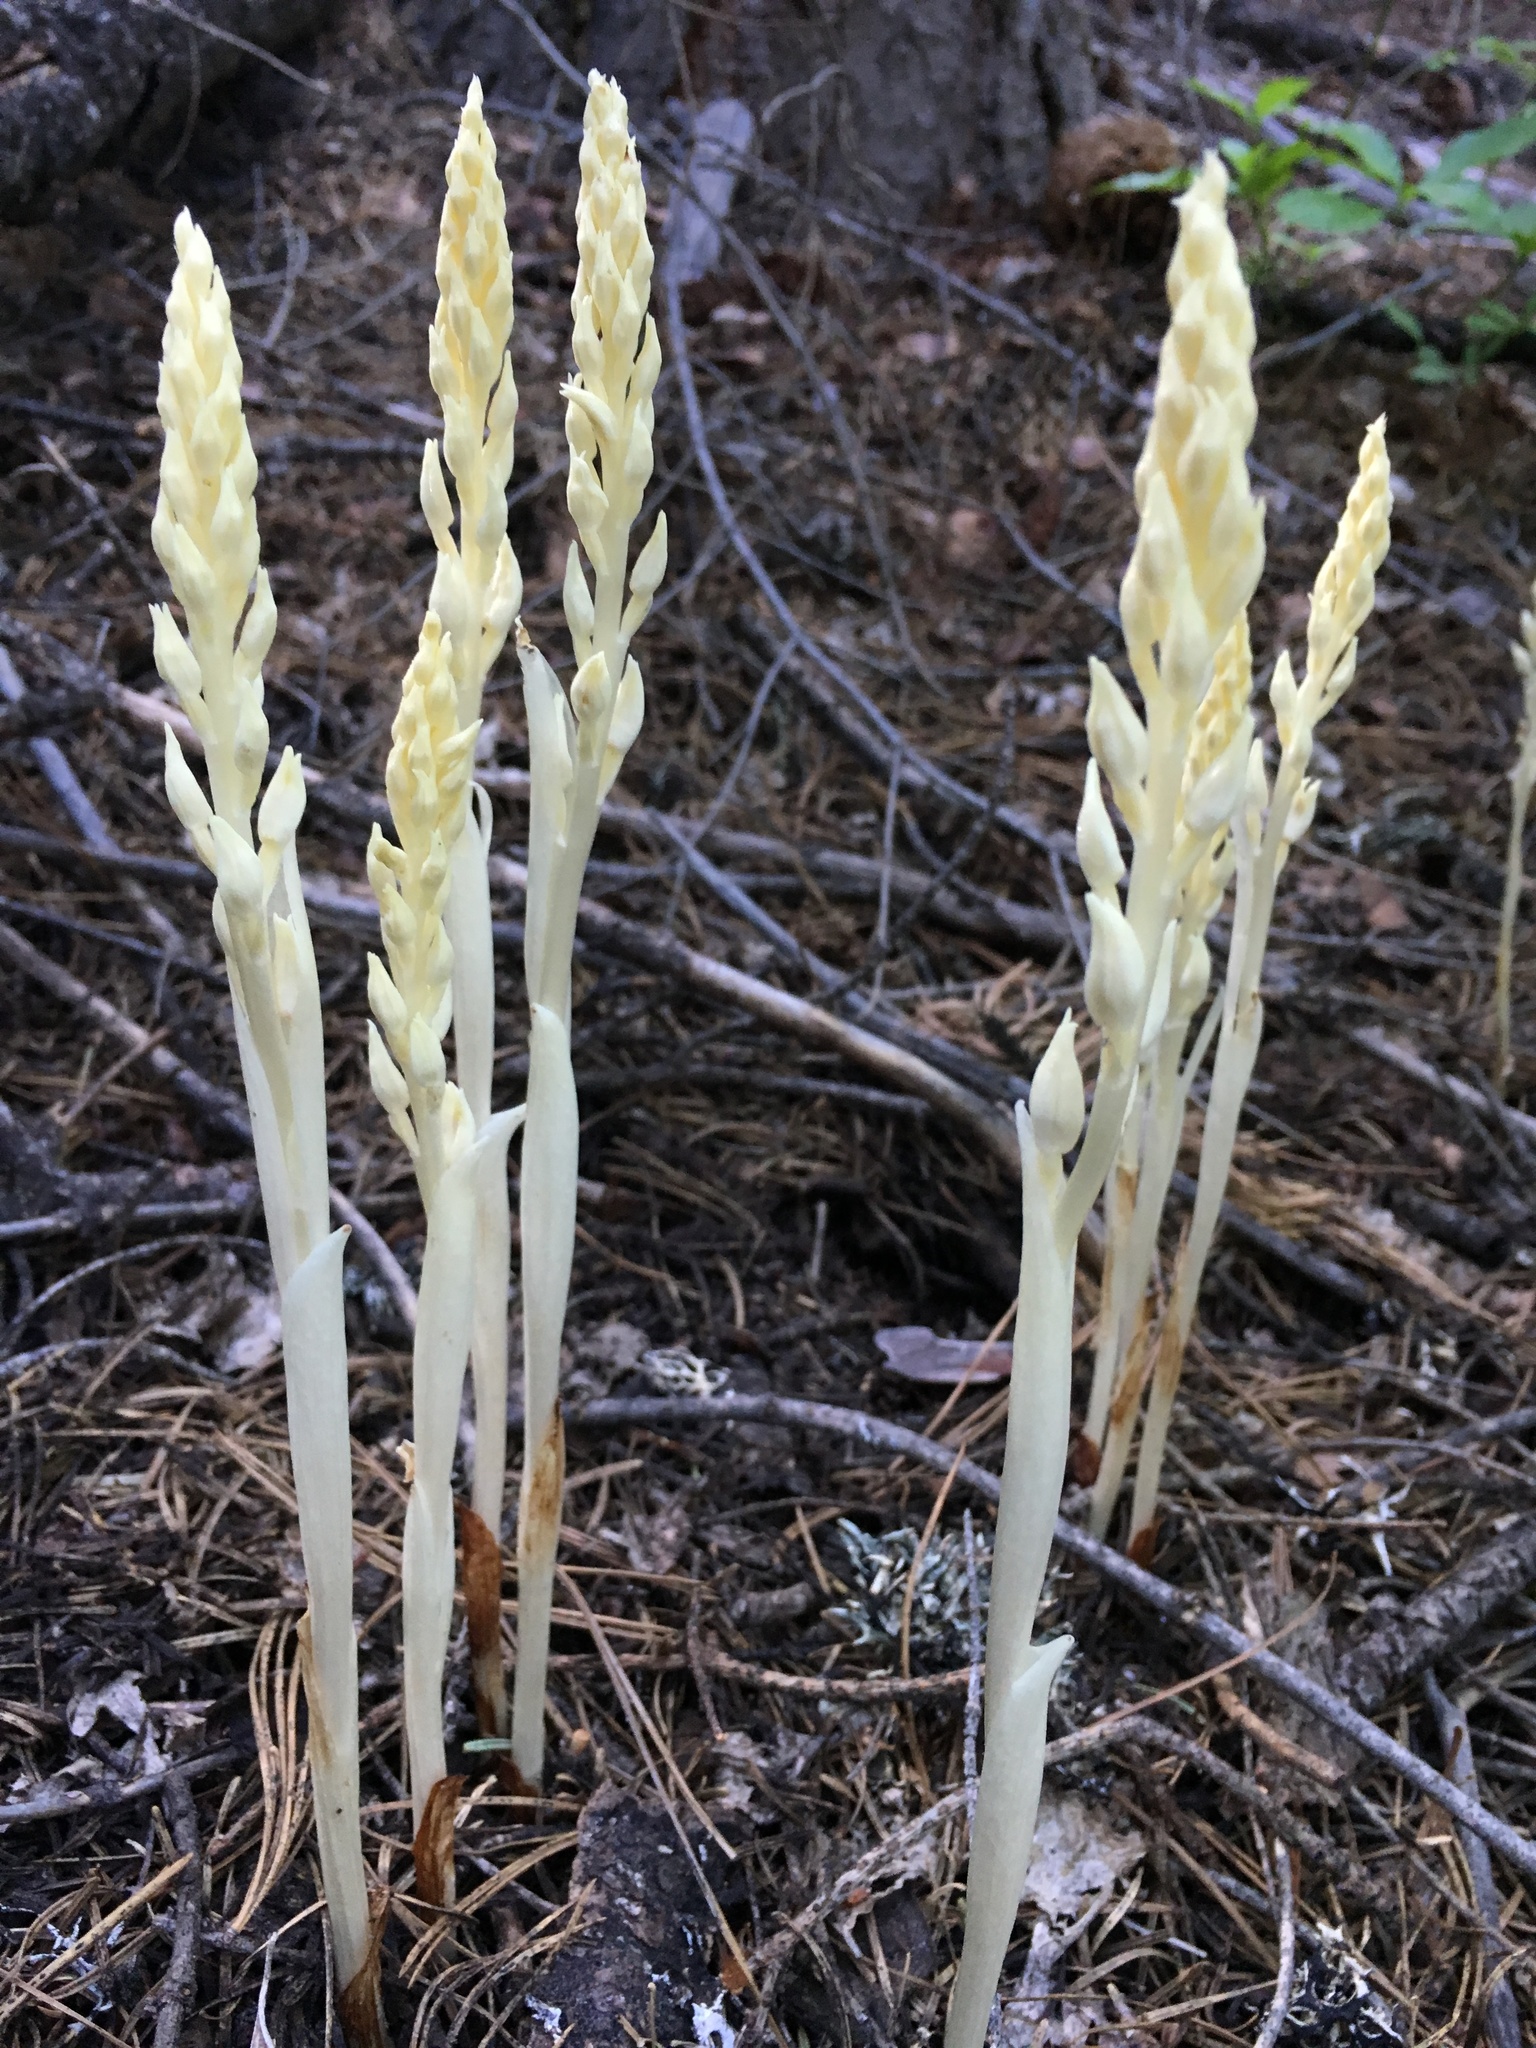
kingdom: Plantae
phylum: Tracheophyta
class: Liliopsida
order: Asparagales
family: Orchidaceae
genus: Cephalanthera
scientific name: Cephalanthera austiniae
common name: Phantom orchid
